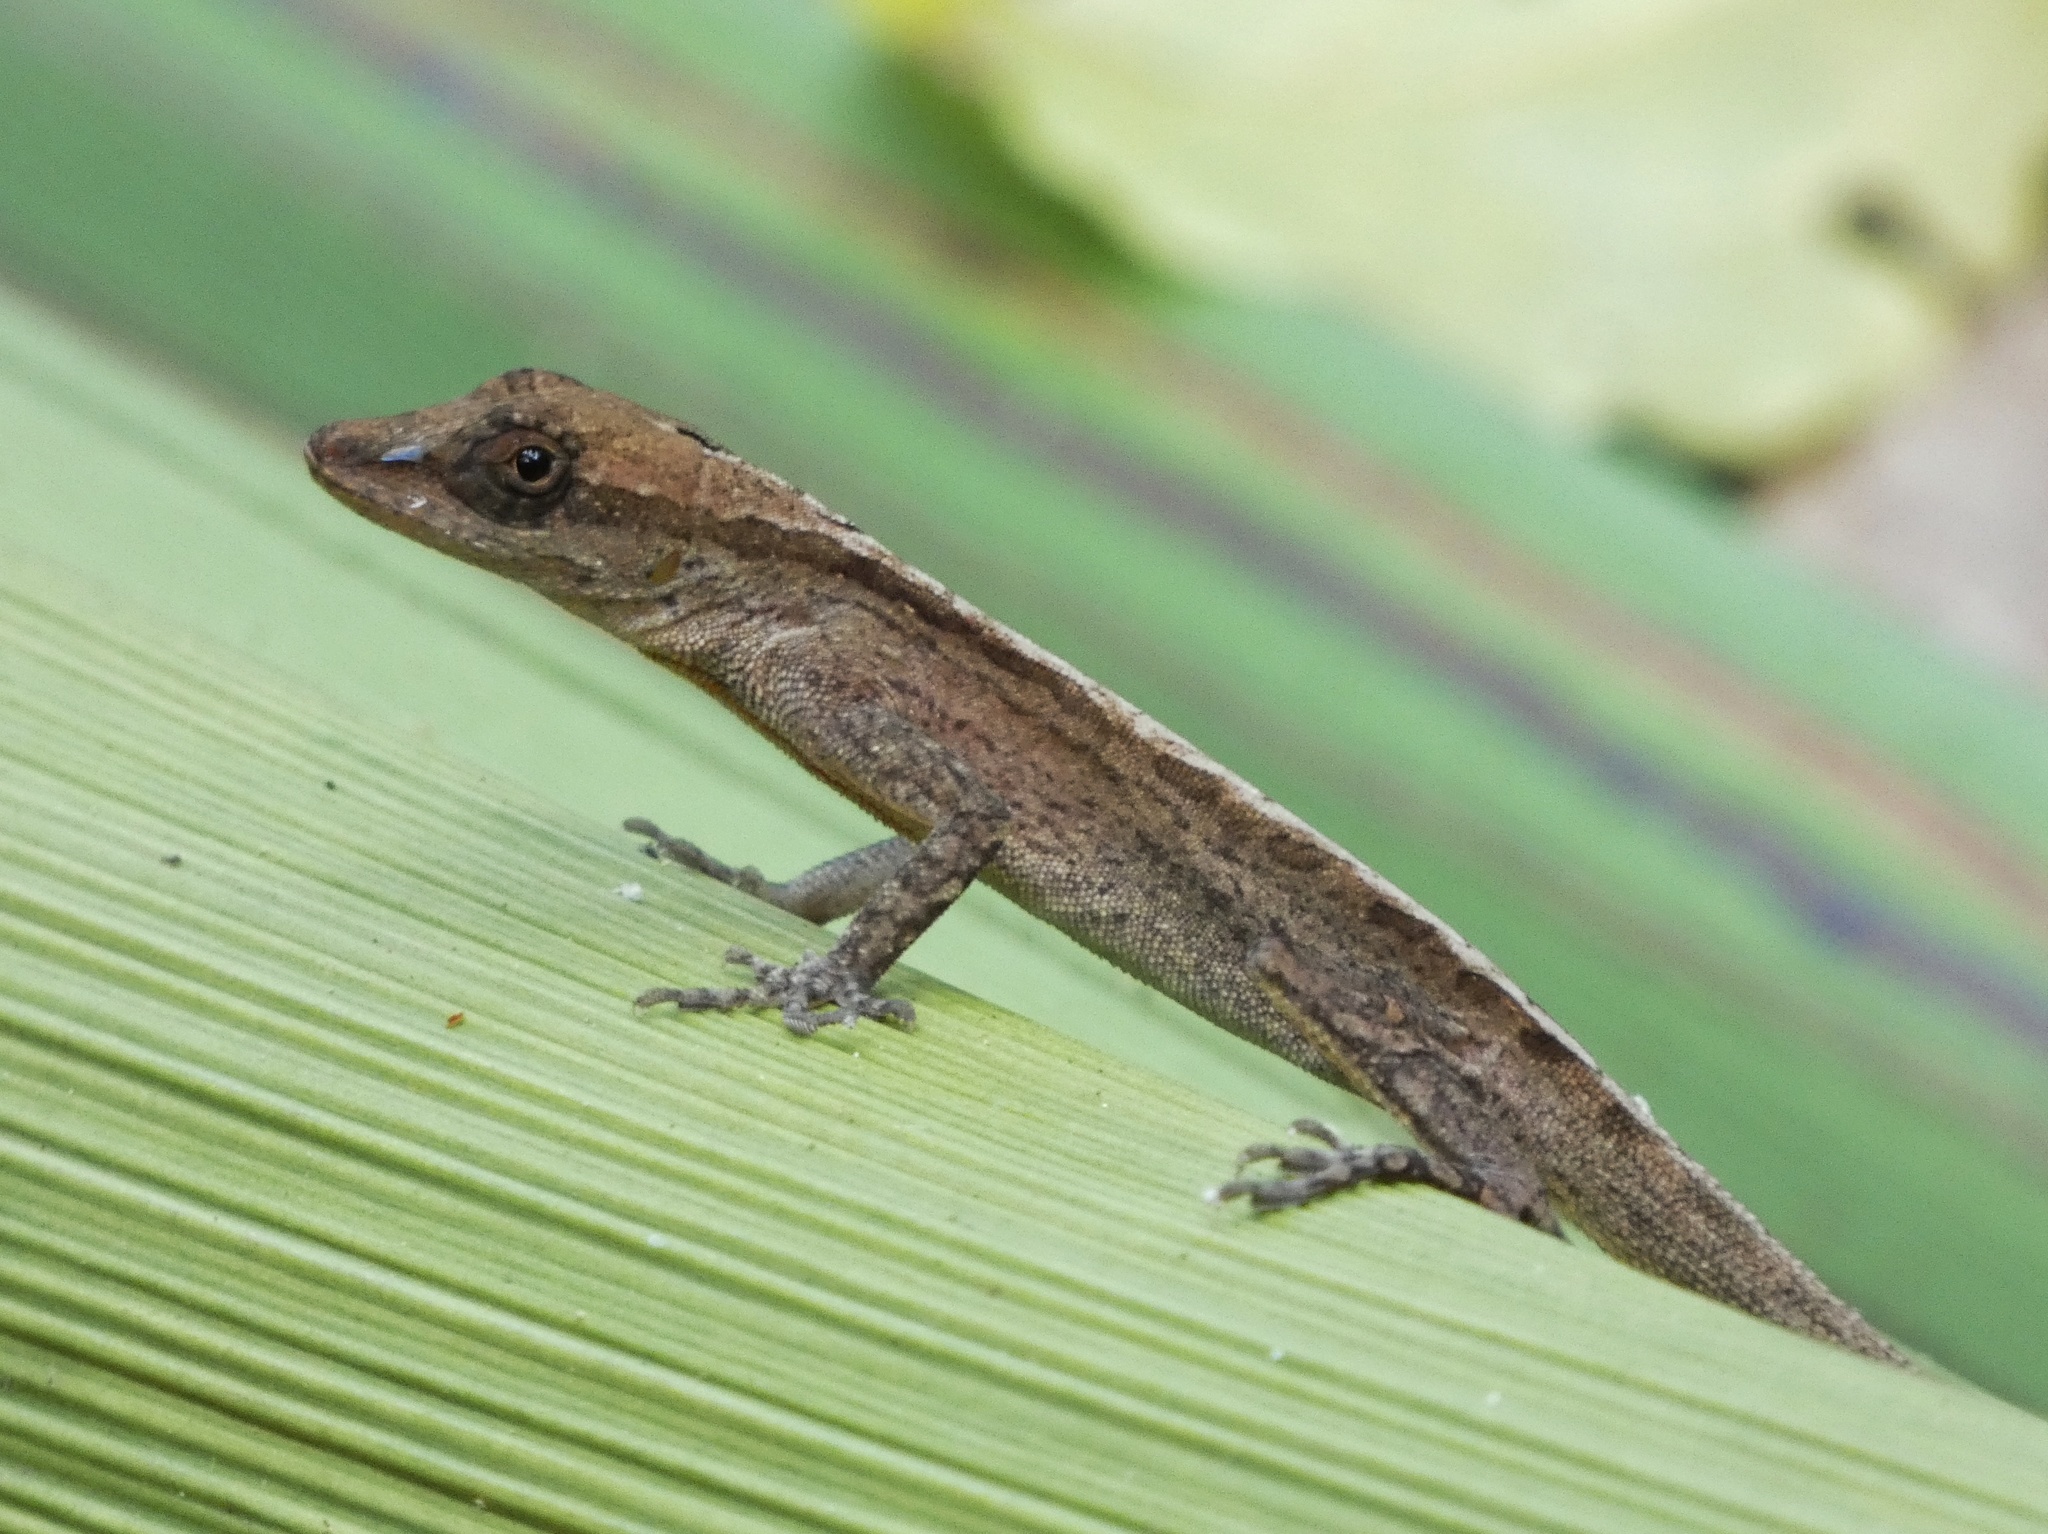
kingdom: Animalia
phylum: Chordata
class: Squamata
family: Dactyloidae
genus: Anolis
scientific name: Anolis apletophallus
